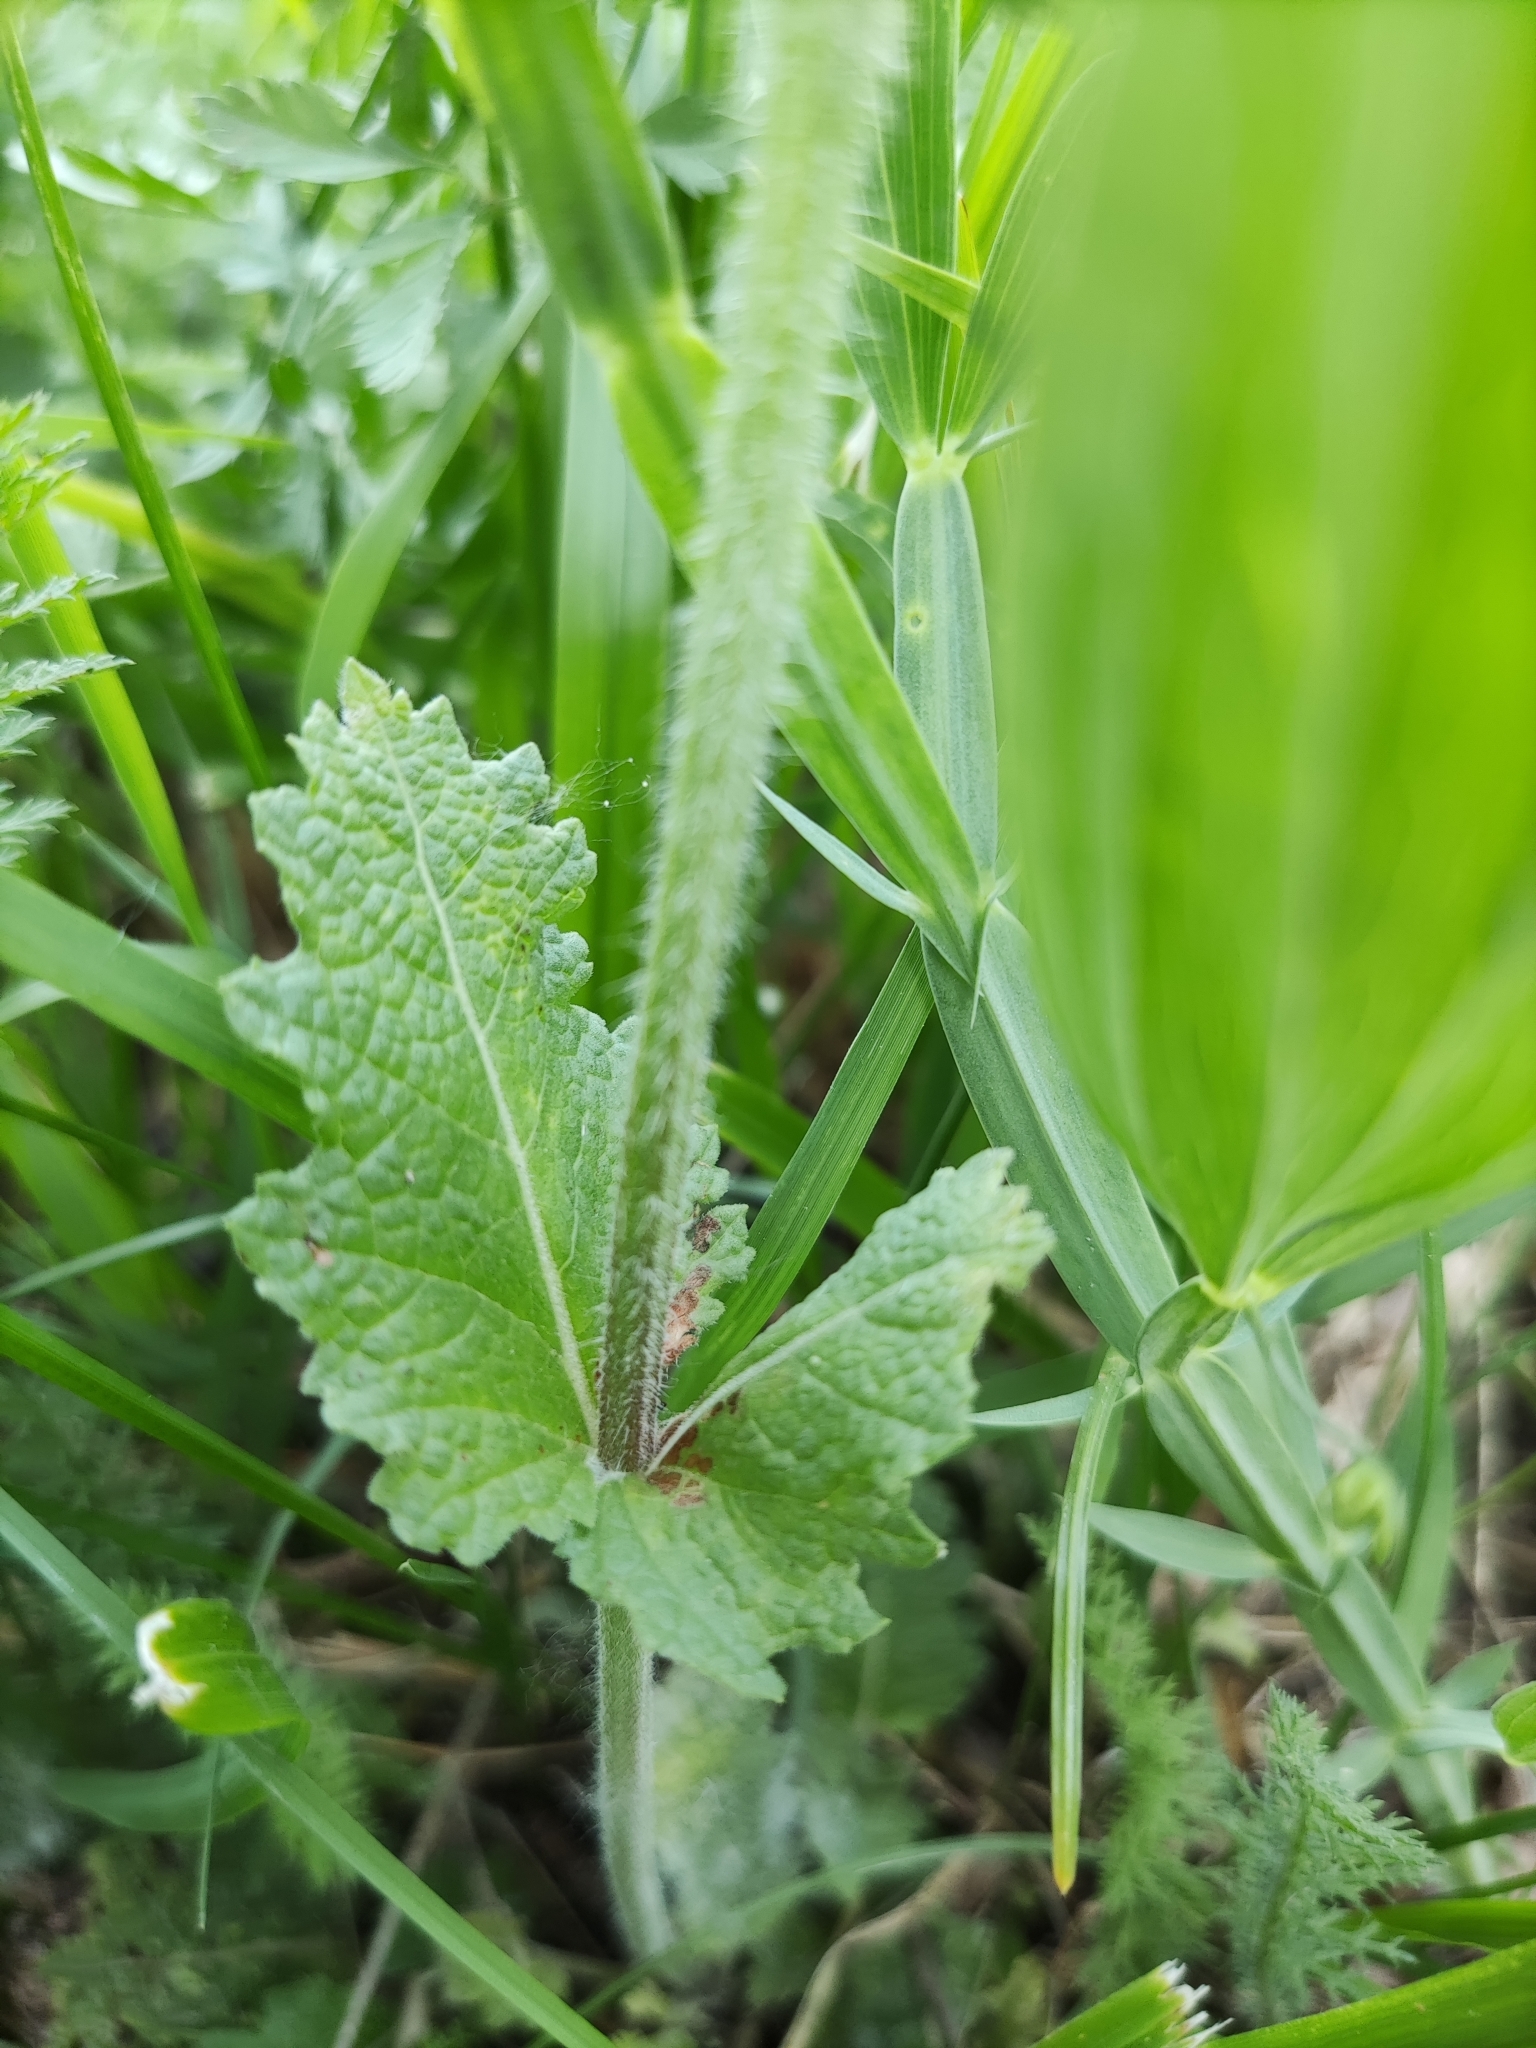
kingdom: Plantae
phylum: Tracheophyta
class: Magnoliopsida
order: Lamiales
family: Lamiaceae
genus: Salvia
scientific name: Salvia verbenaca
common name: Wild clary
